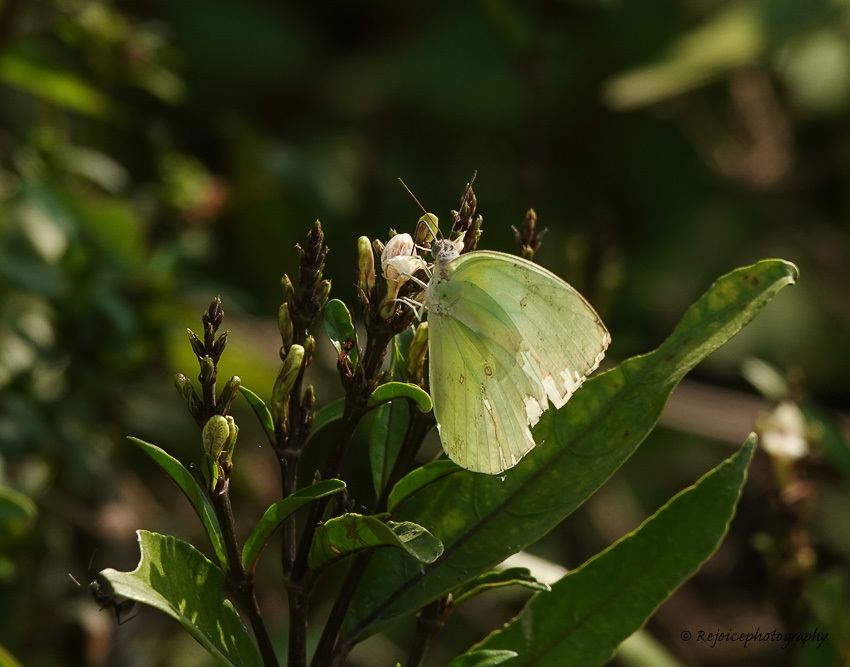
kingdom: Animalia
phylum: Arthropoda
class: Insecta
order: Lepidoptera
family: Pieridae
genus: Catopsilia
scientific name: Catopsilia pomona
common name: Common emigrant
